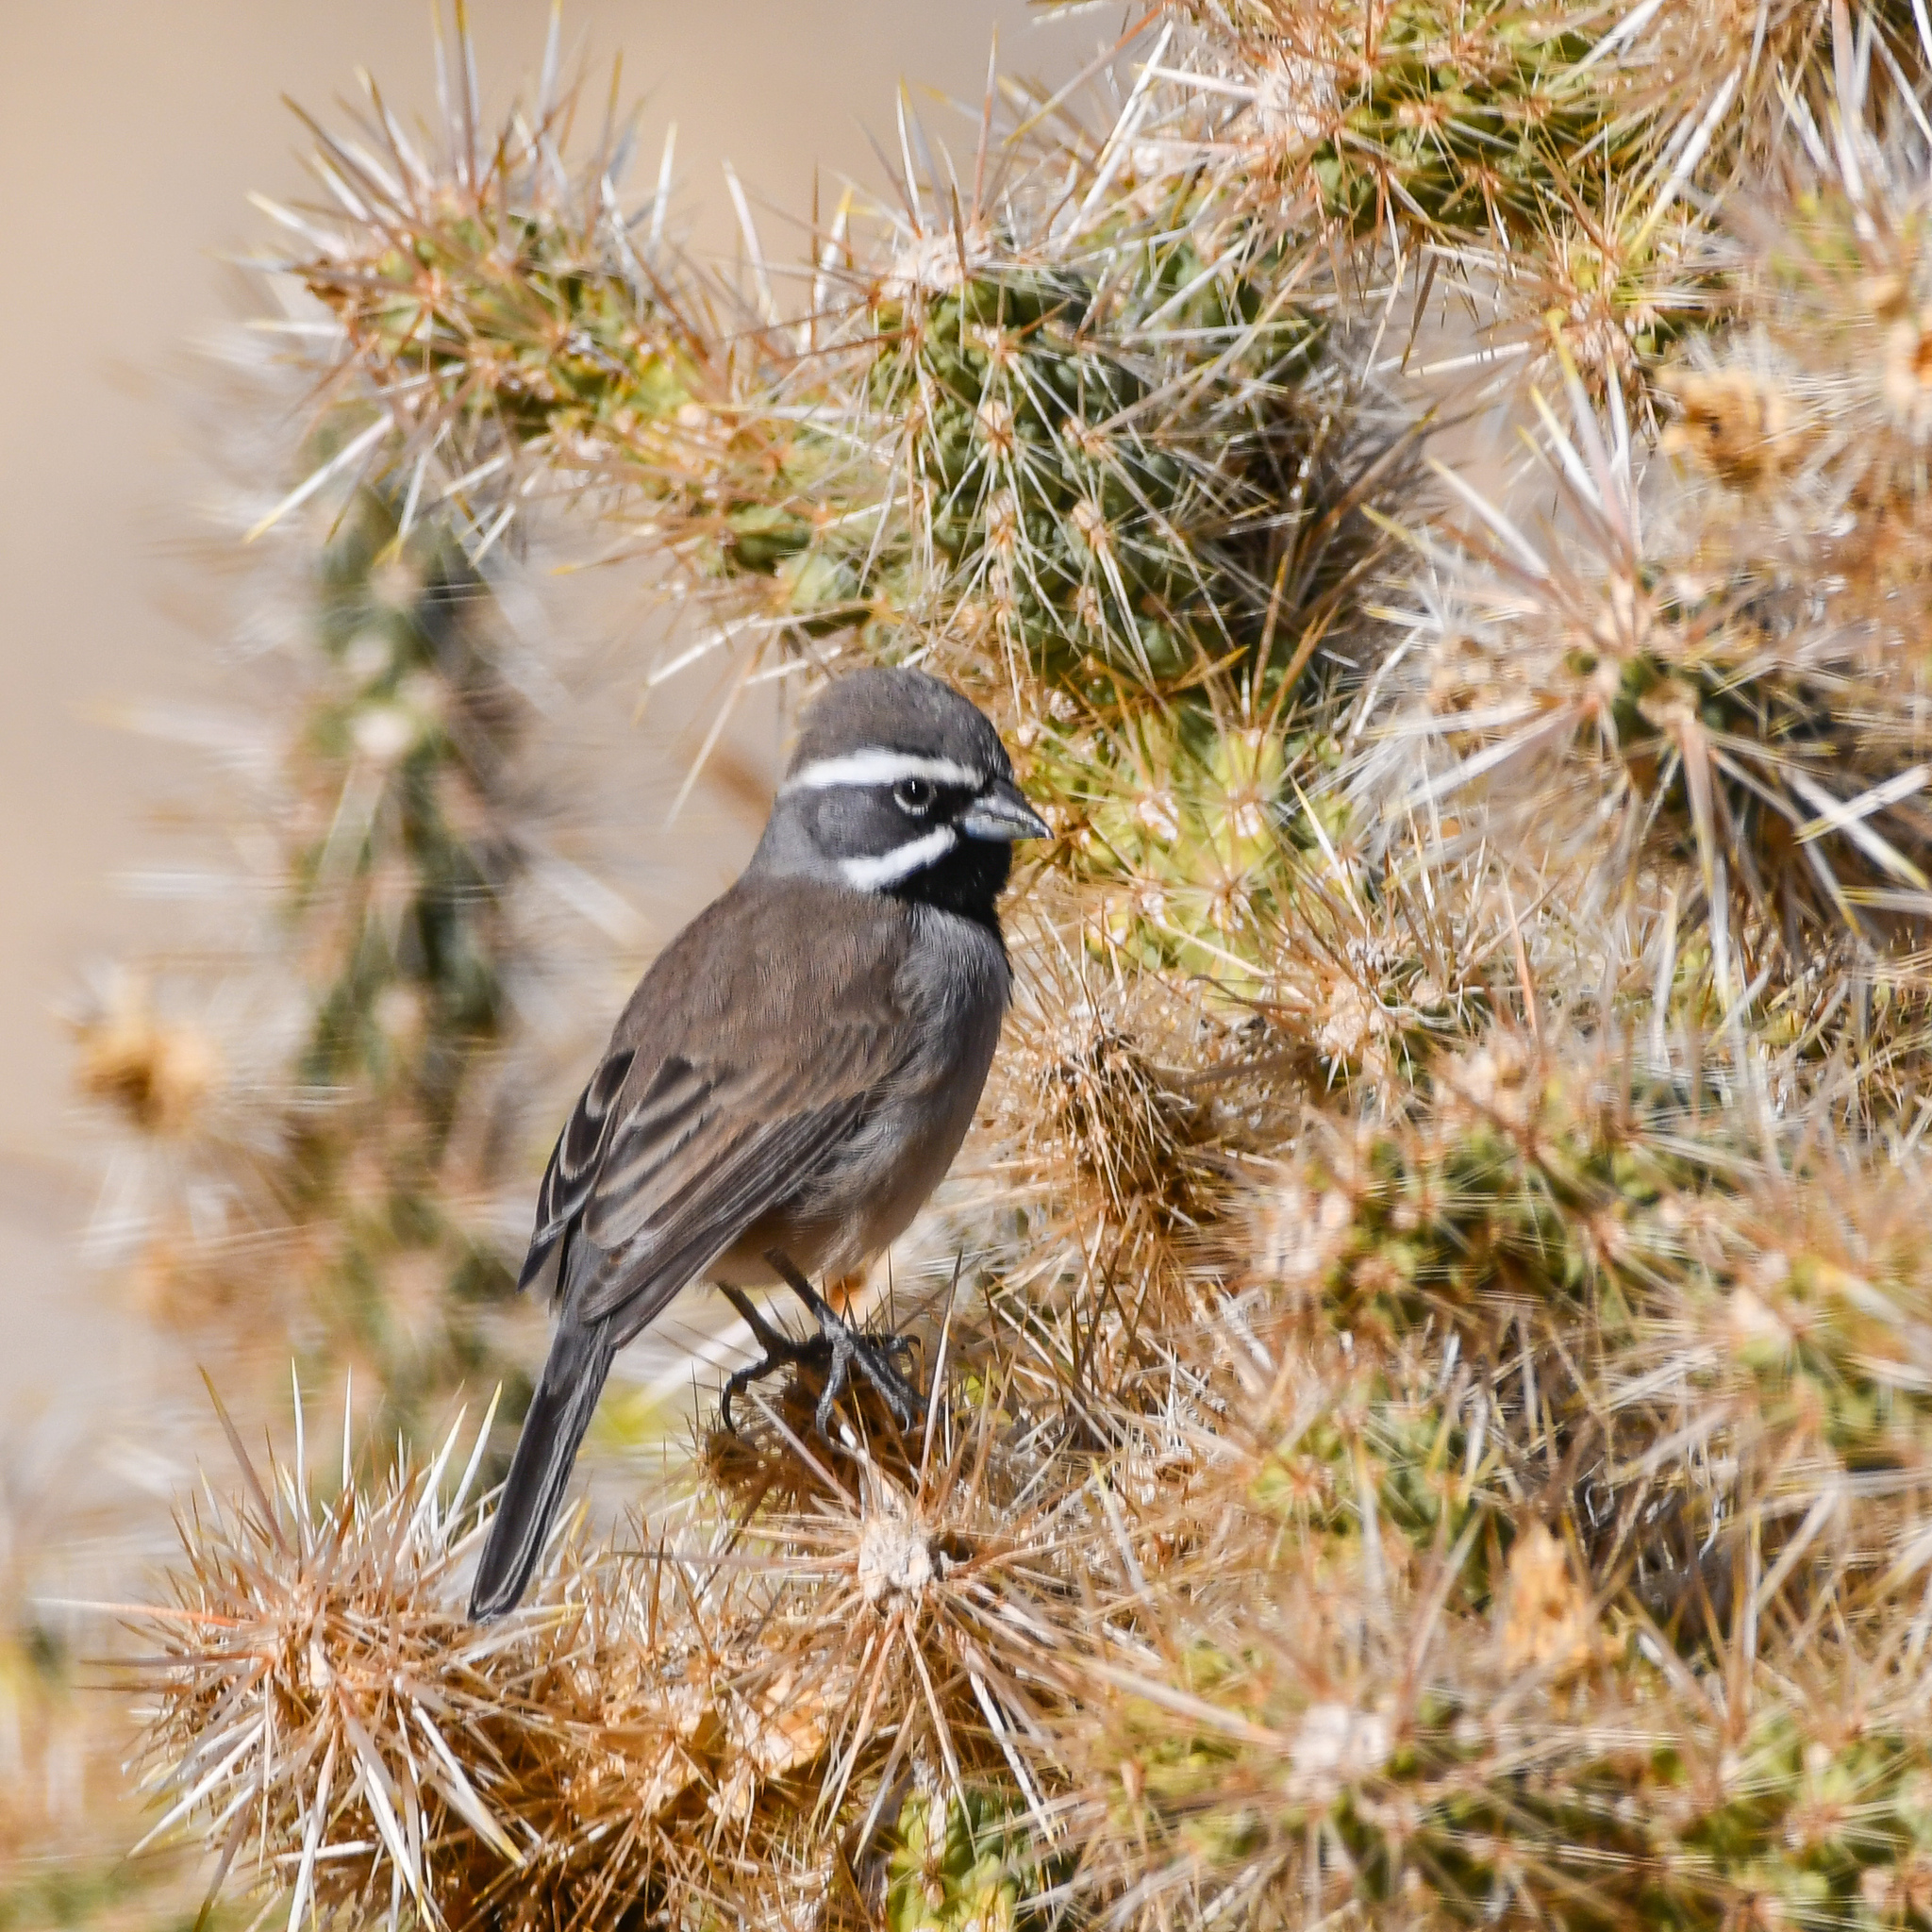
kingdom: Animalia
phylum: Chordata
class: Aves
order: Passeriformes
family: Passerellidae
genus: Amphispiza
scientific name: Amphispiza bilineata
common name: Black-throated sparrow
